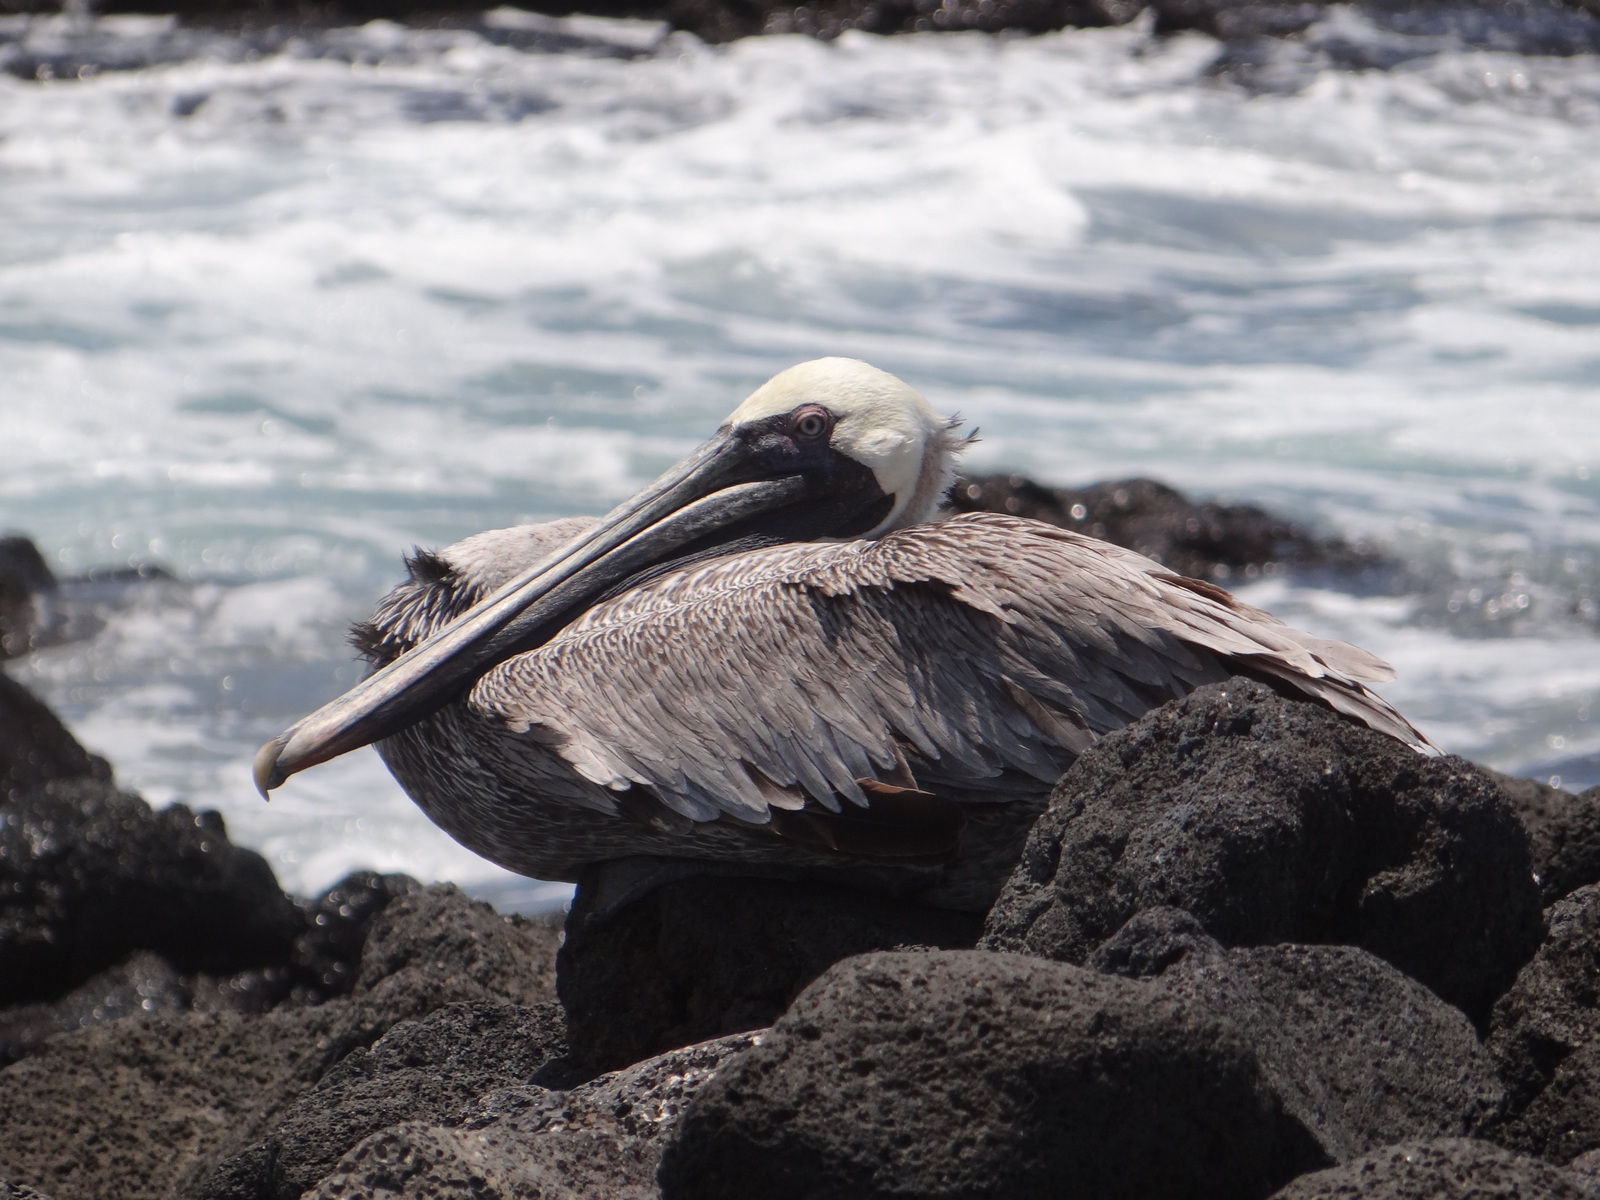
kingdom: Animalia
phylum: Chordata
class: Aves
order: Pelecaniformes
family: Pelecanidae
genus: Pelecanus
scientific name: Pelecanus occidentalis
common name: Brown pelican
